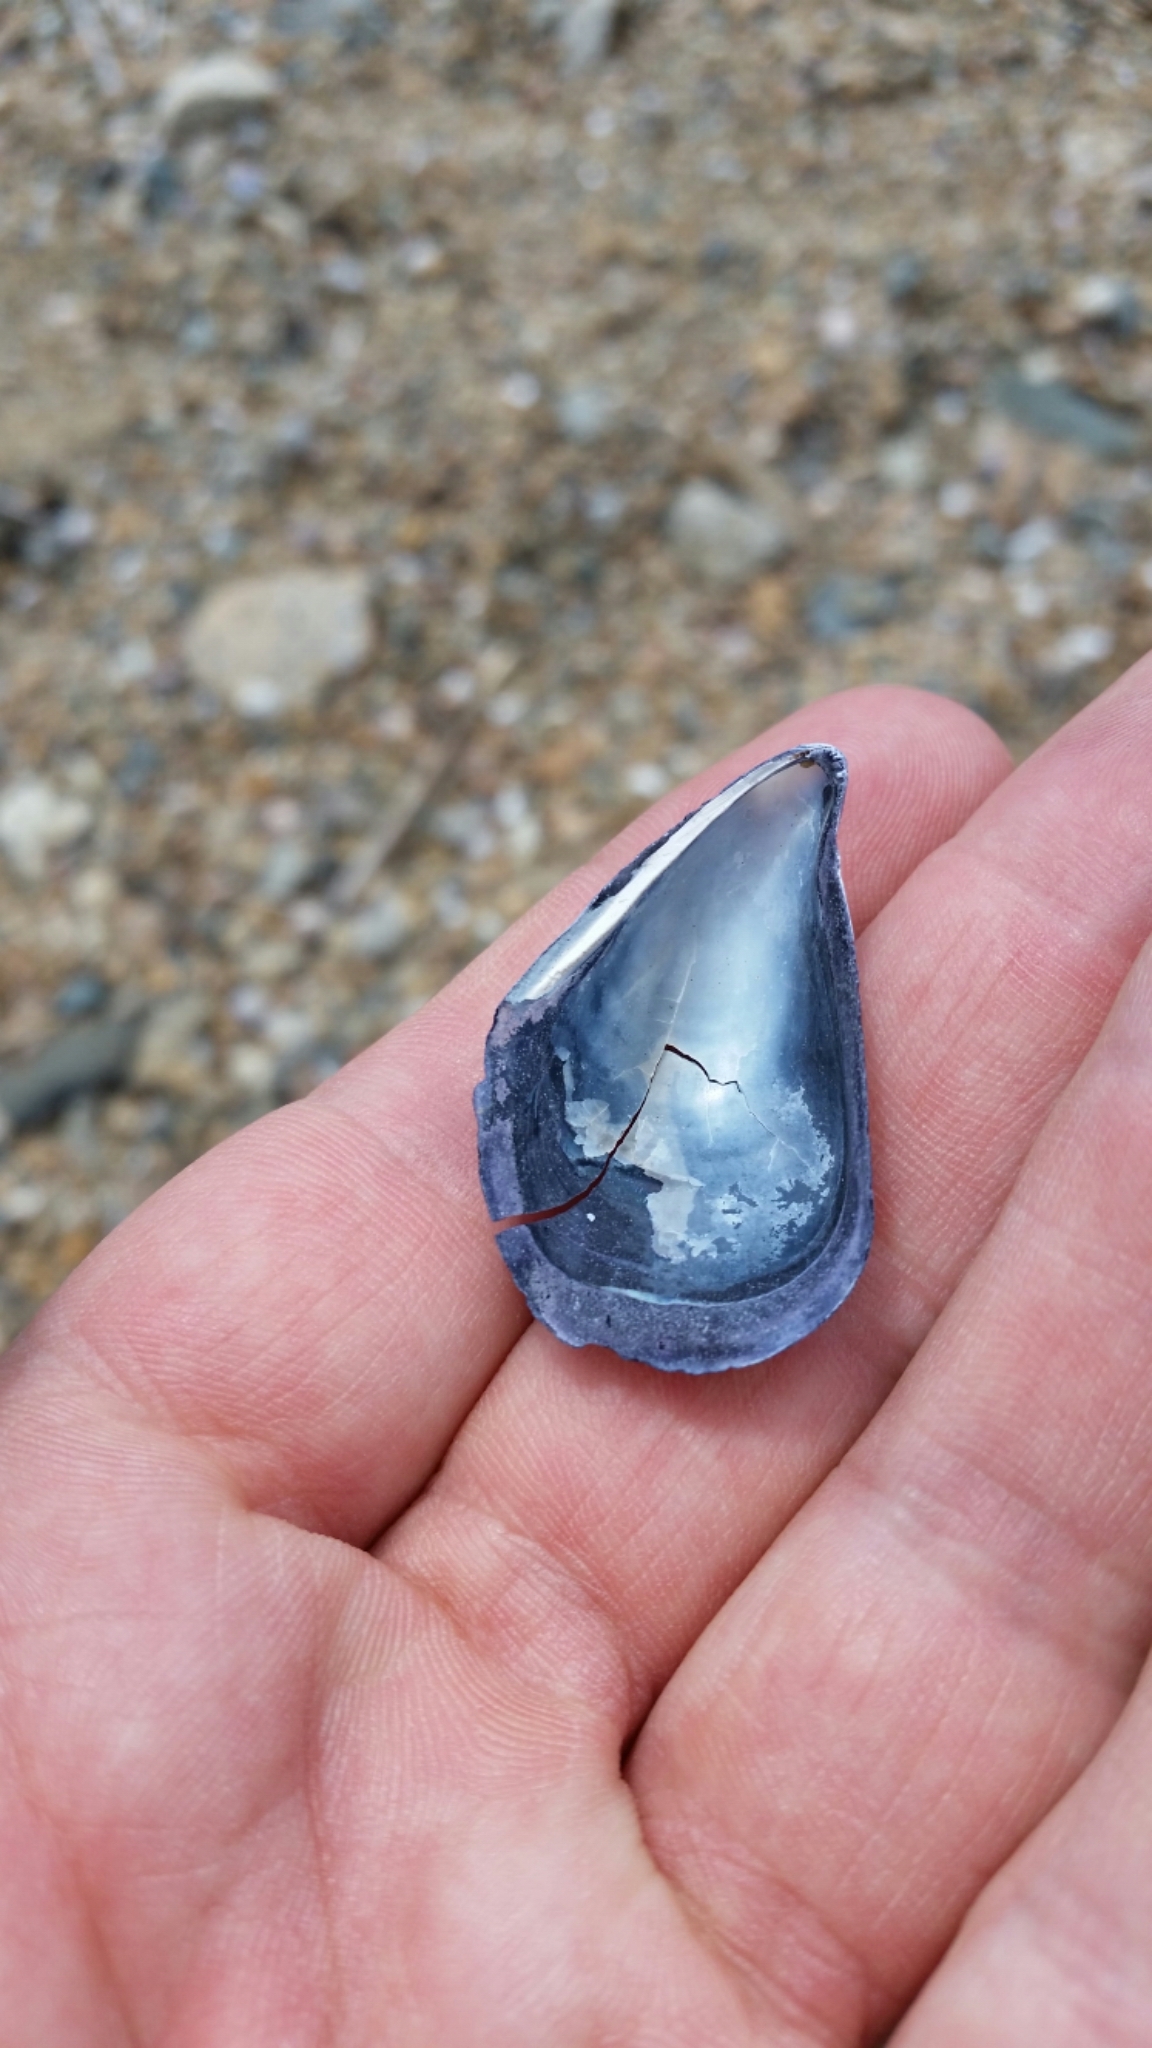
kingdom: Animalia
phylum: Mollusca
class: Bivalvia
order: Mytilida
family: Mytilidae
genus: Mytilus
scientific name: Mytilus
